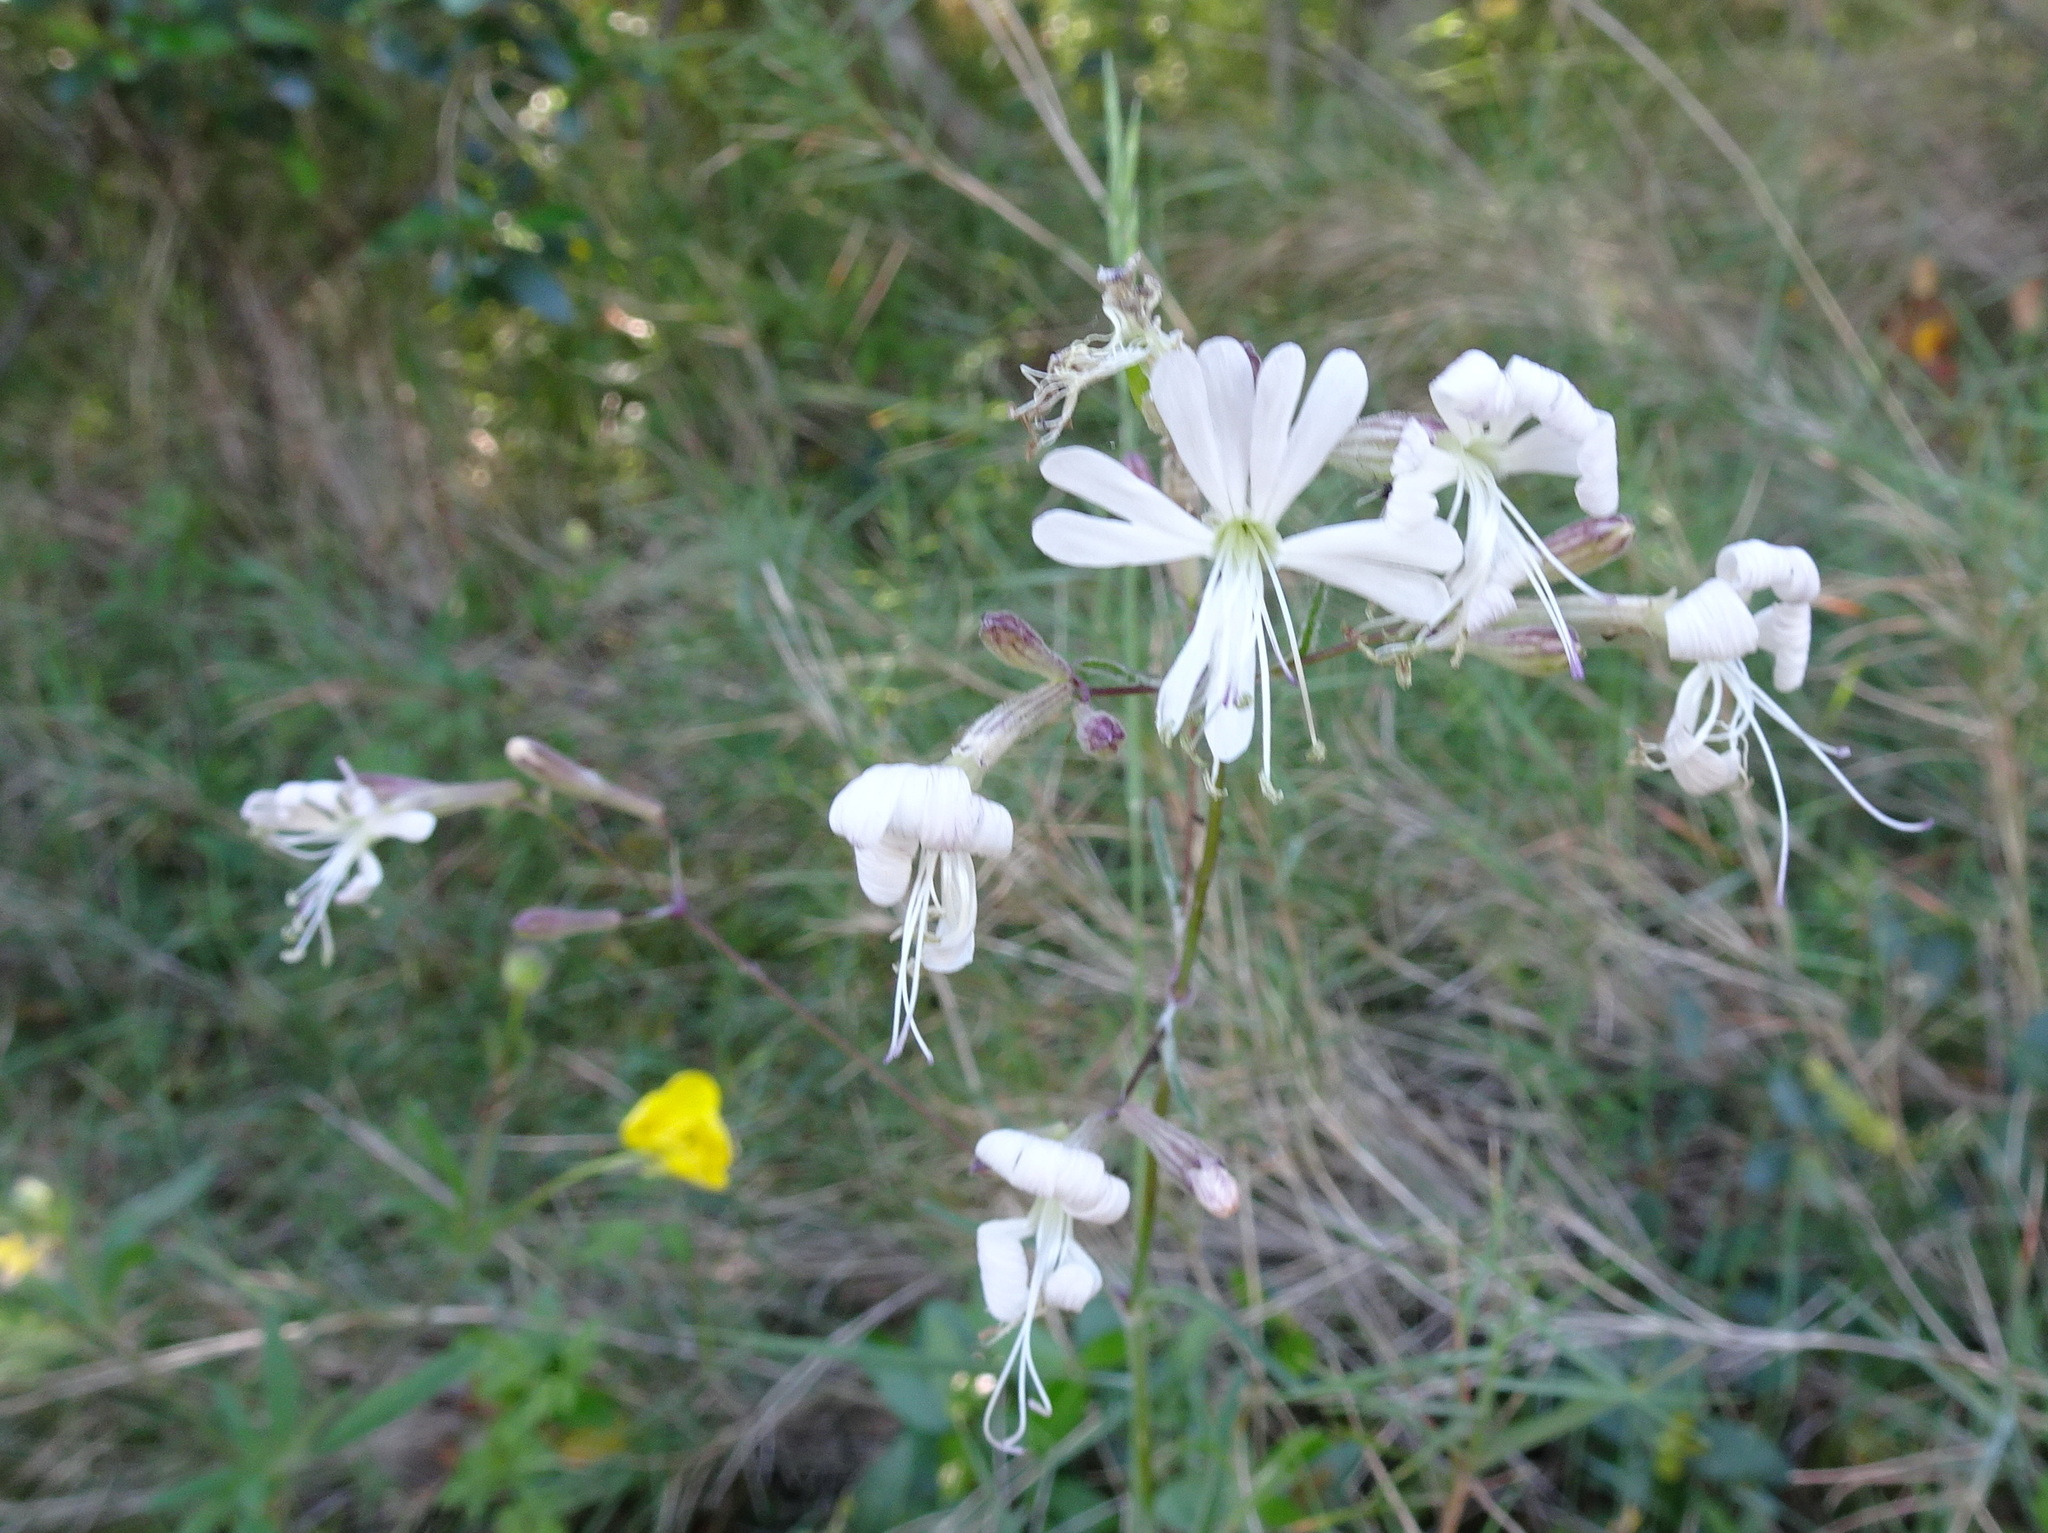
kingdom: Plantae
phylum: Tracheophyta
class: Magnoliopsida
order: Caryophyllales
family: Caryophyllaceae
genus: Silene
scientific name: Silene italica
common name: Italian catchfly
